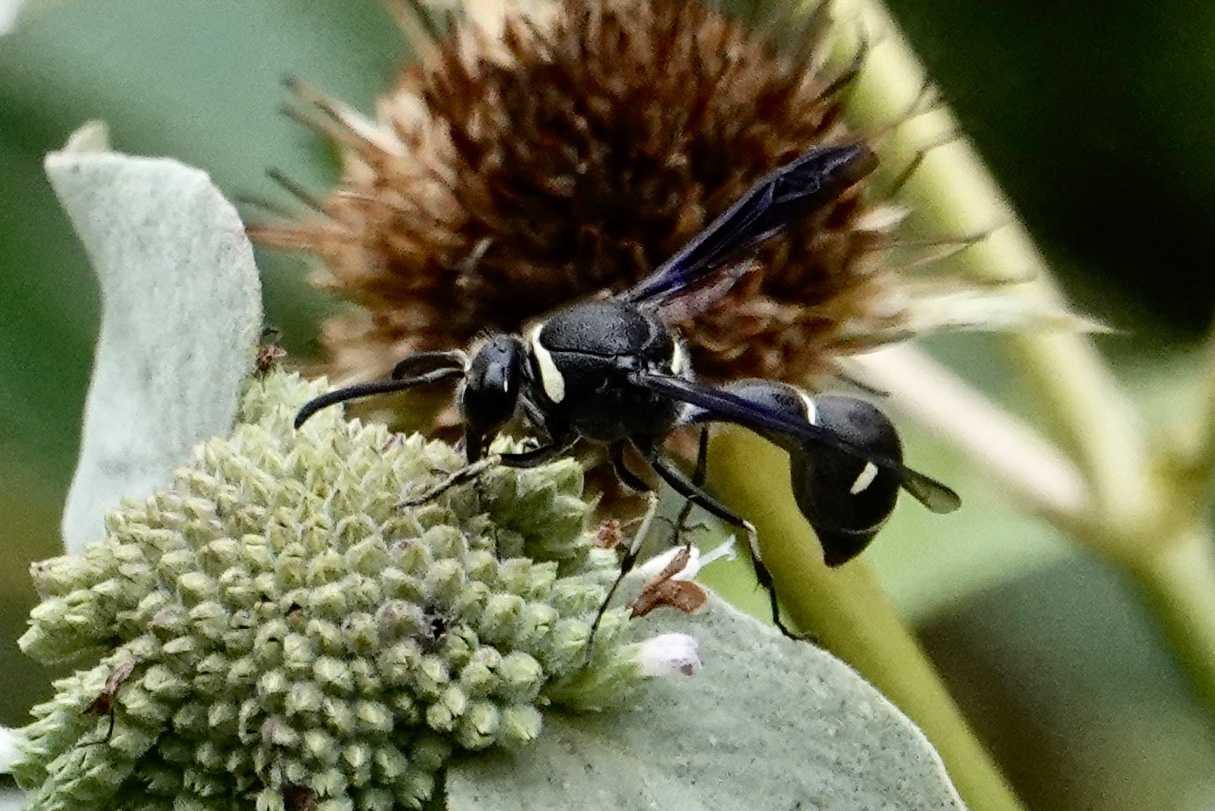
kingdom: Animalia
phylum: Arthropoda
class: Insecta
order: Hymenoptera
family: Vespidae
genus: Eumenes
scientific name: Eumenes fraternus
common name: Fraternal potter wasp
